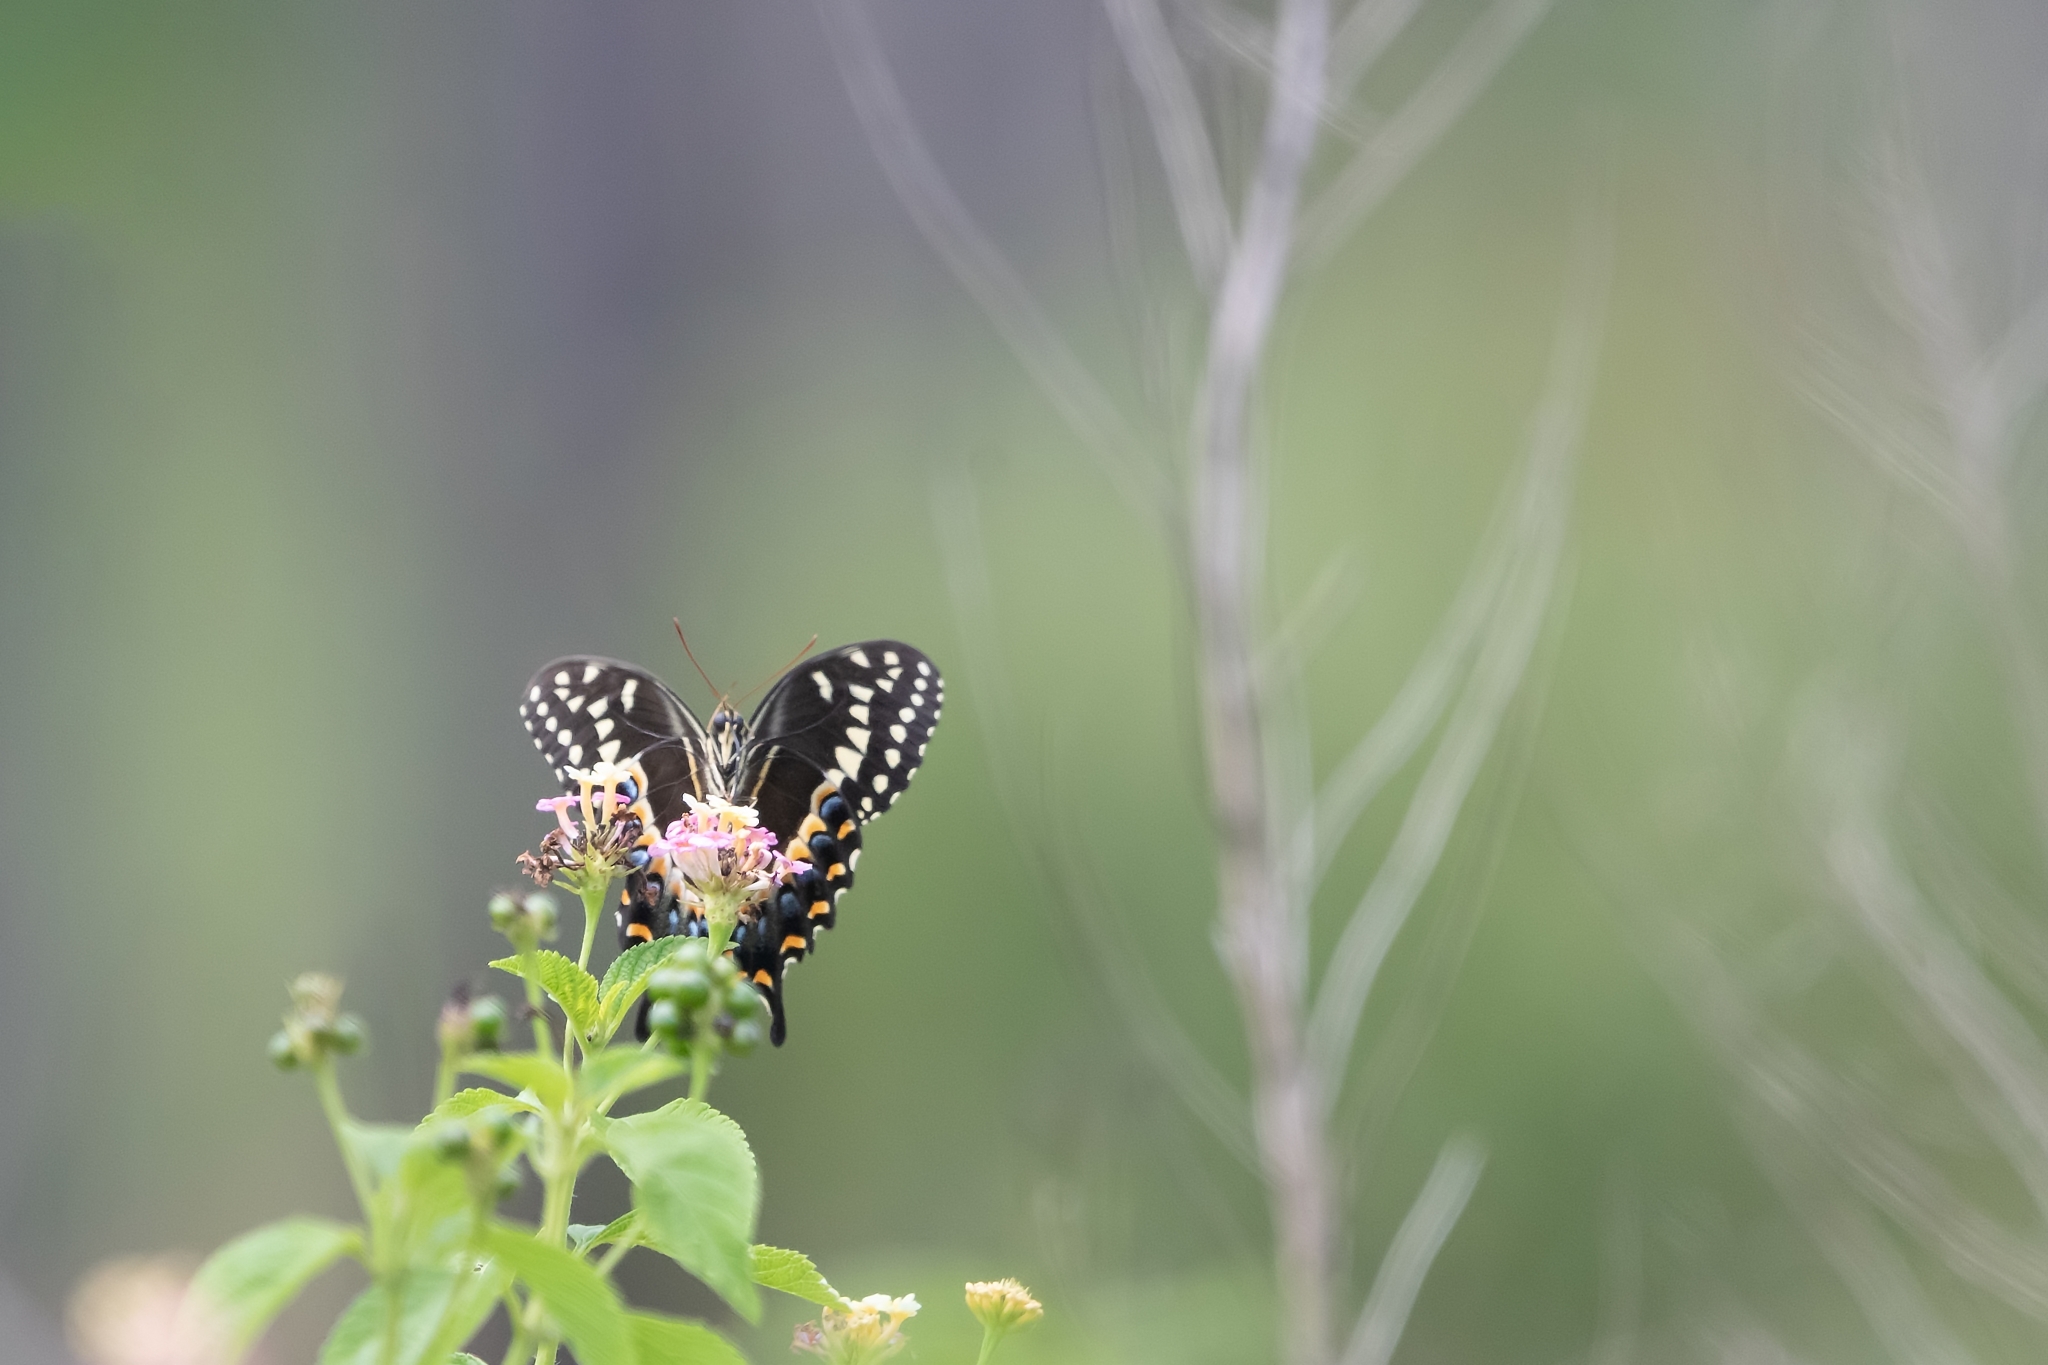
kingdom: Animalia
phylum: Arthropoda
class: Insecta
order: Lepidoptera
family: Papilionidae
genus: Papilio
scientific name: Papilio palamedes
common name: Palamedes swallowtail
